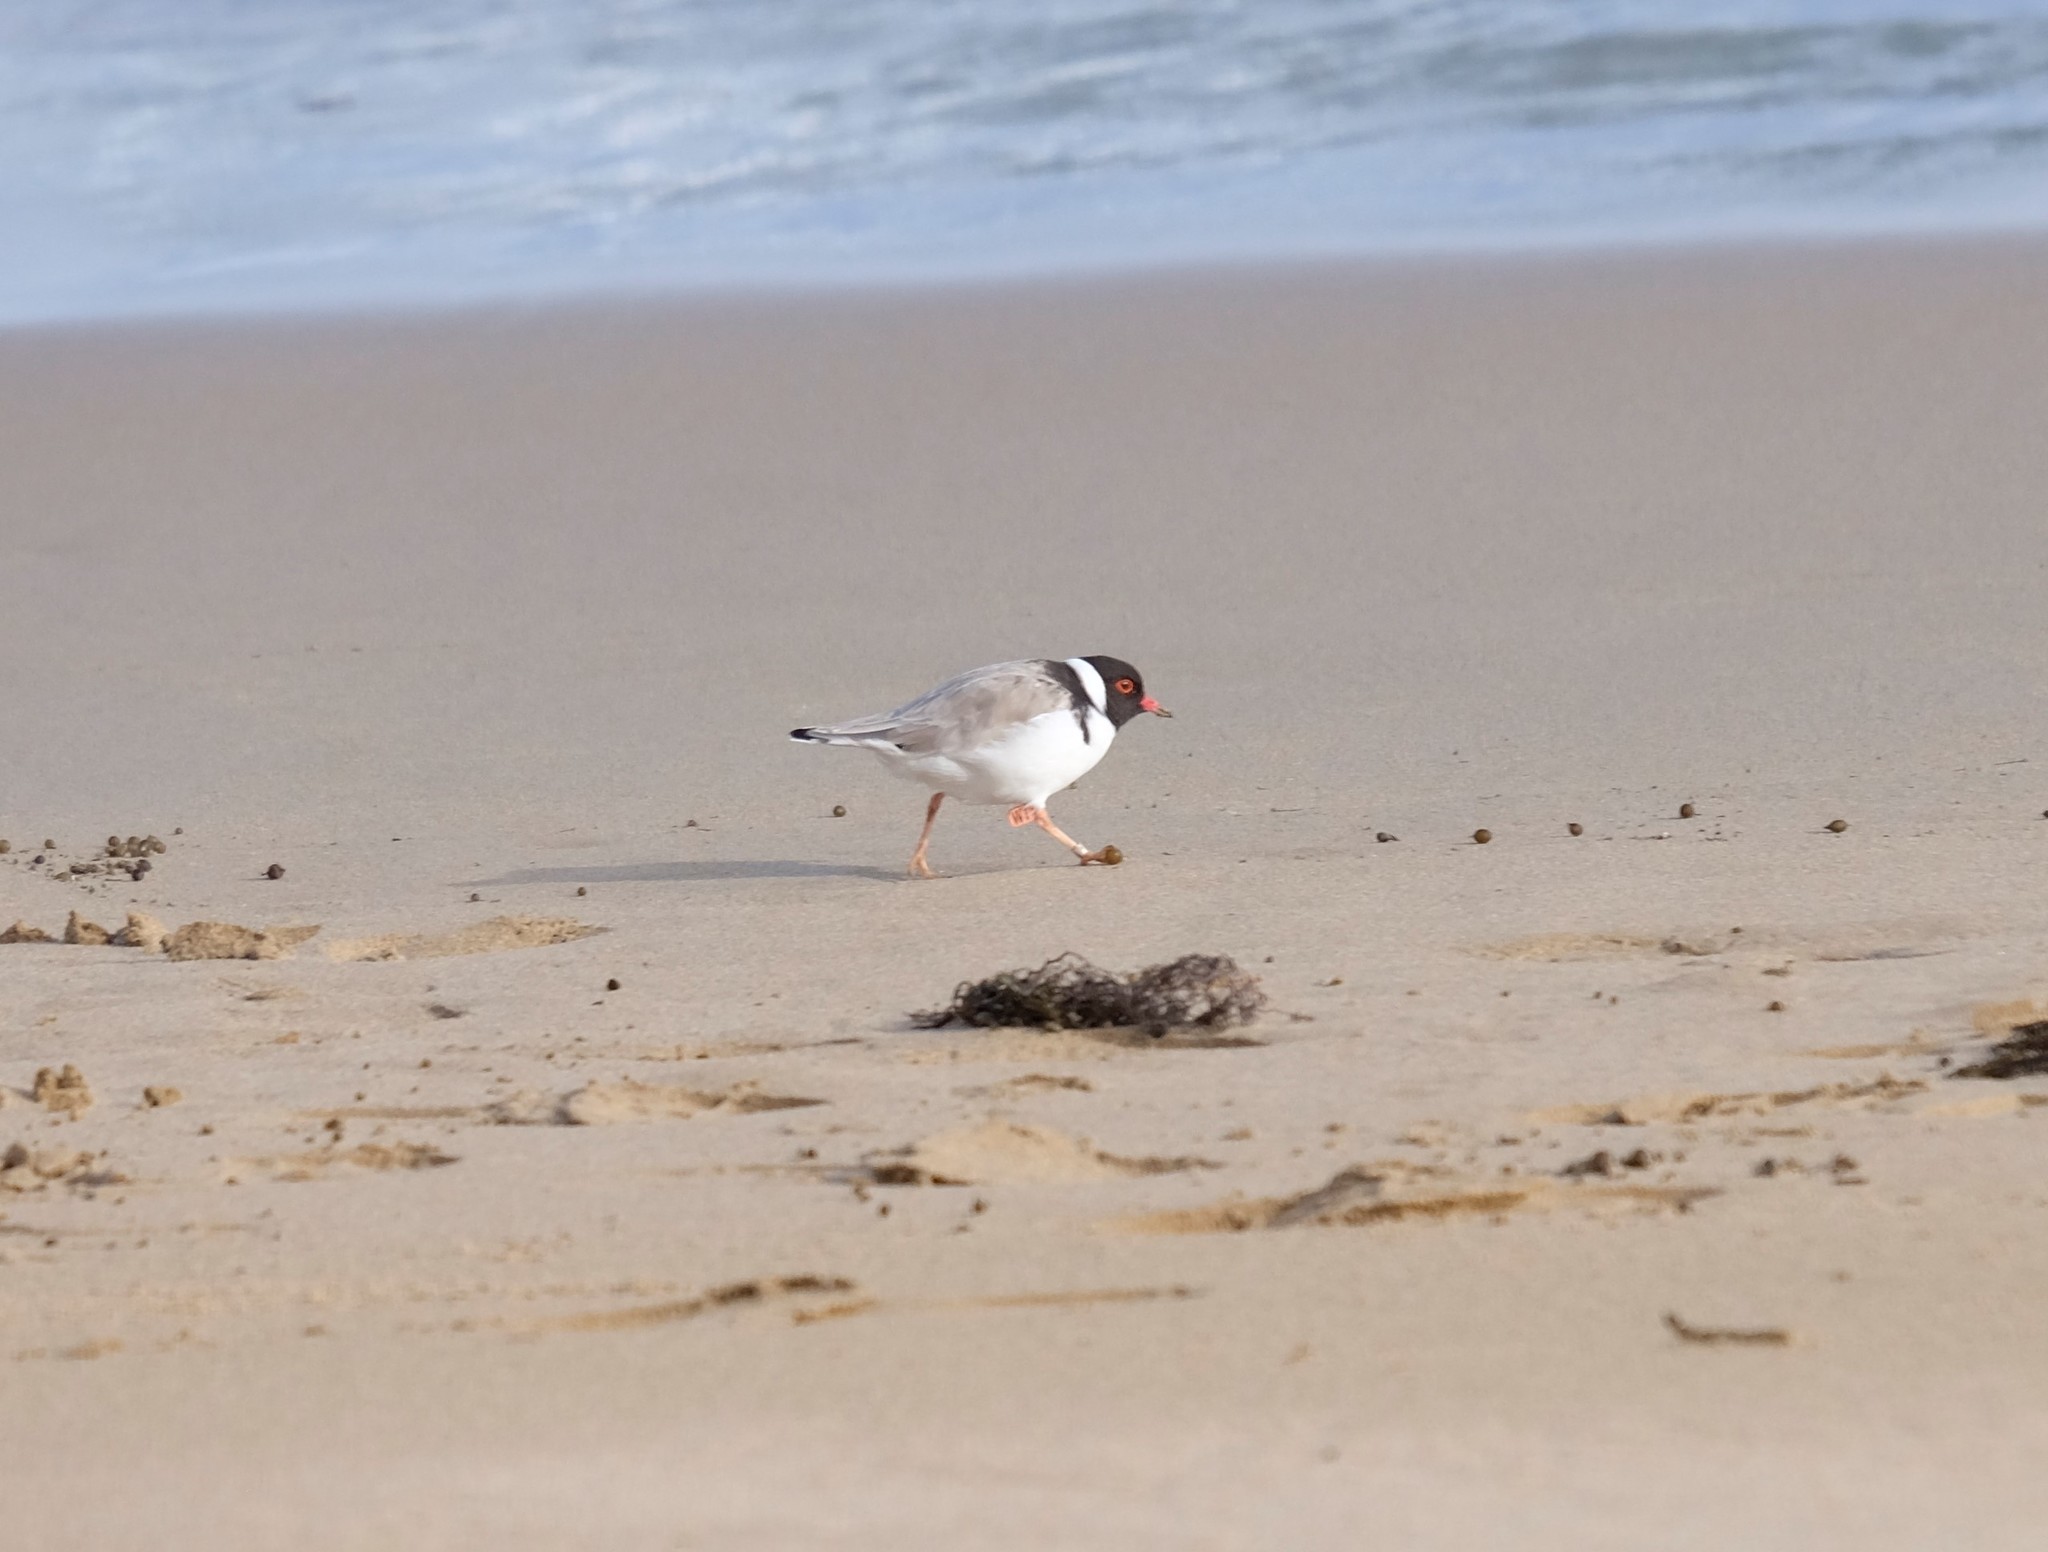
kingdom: Animalia
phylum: Chordata
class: Aves
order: Charadriiformes
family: Charadriidae
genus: Thinornis
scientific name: Thinornis cucullatus
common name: Hooded dotterel
